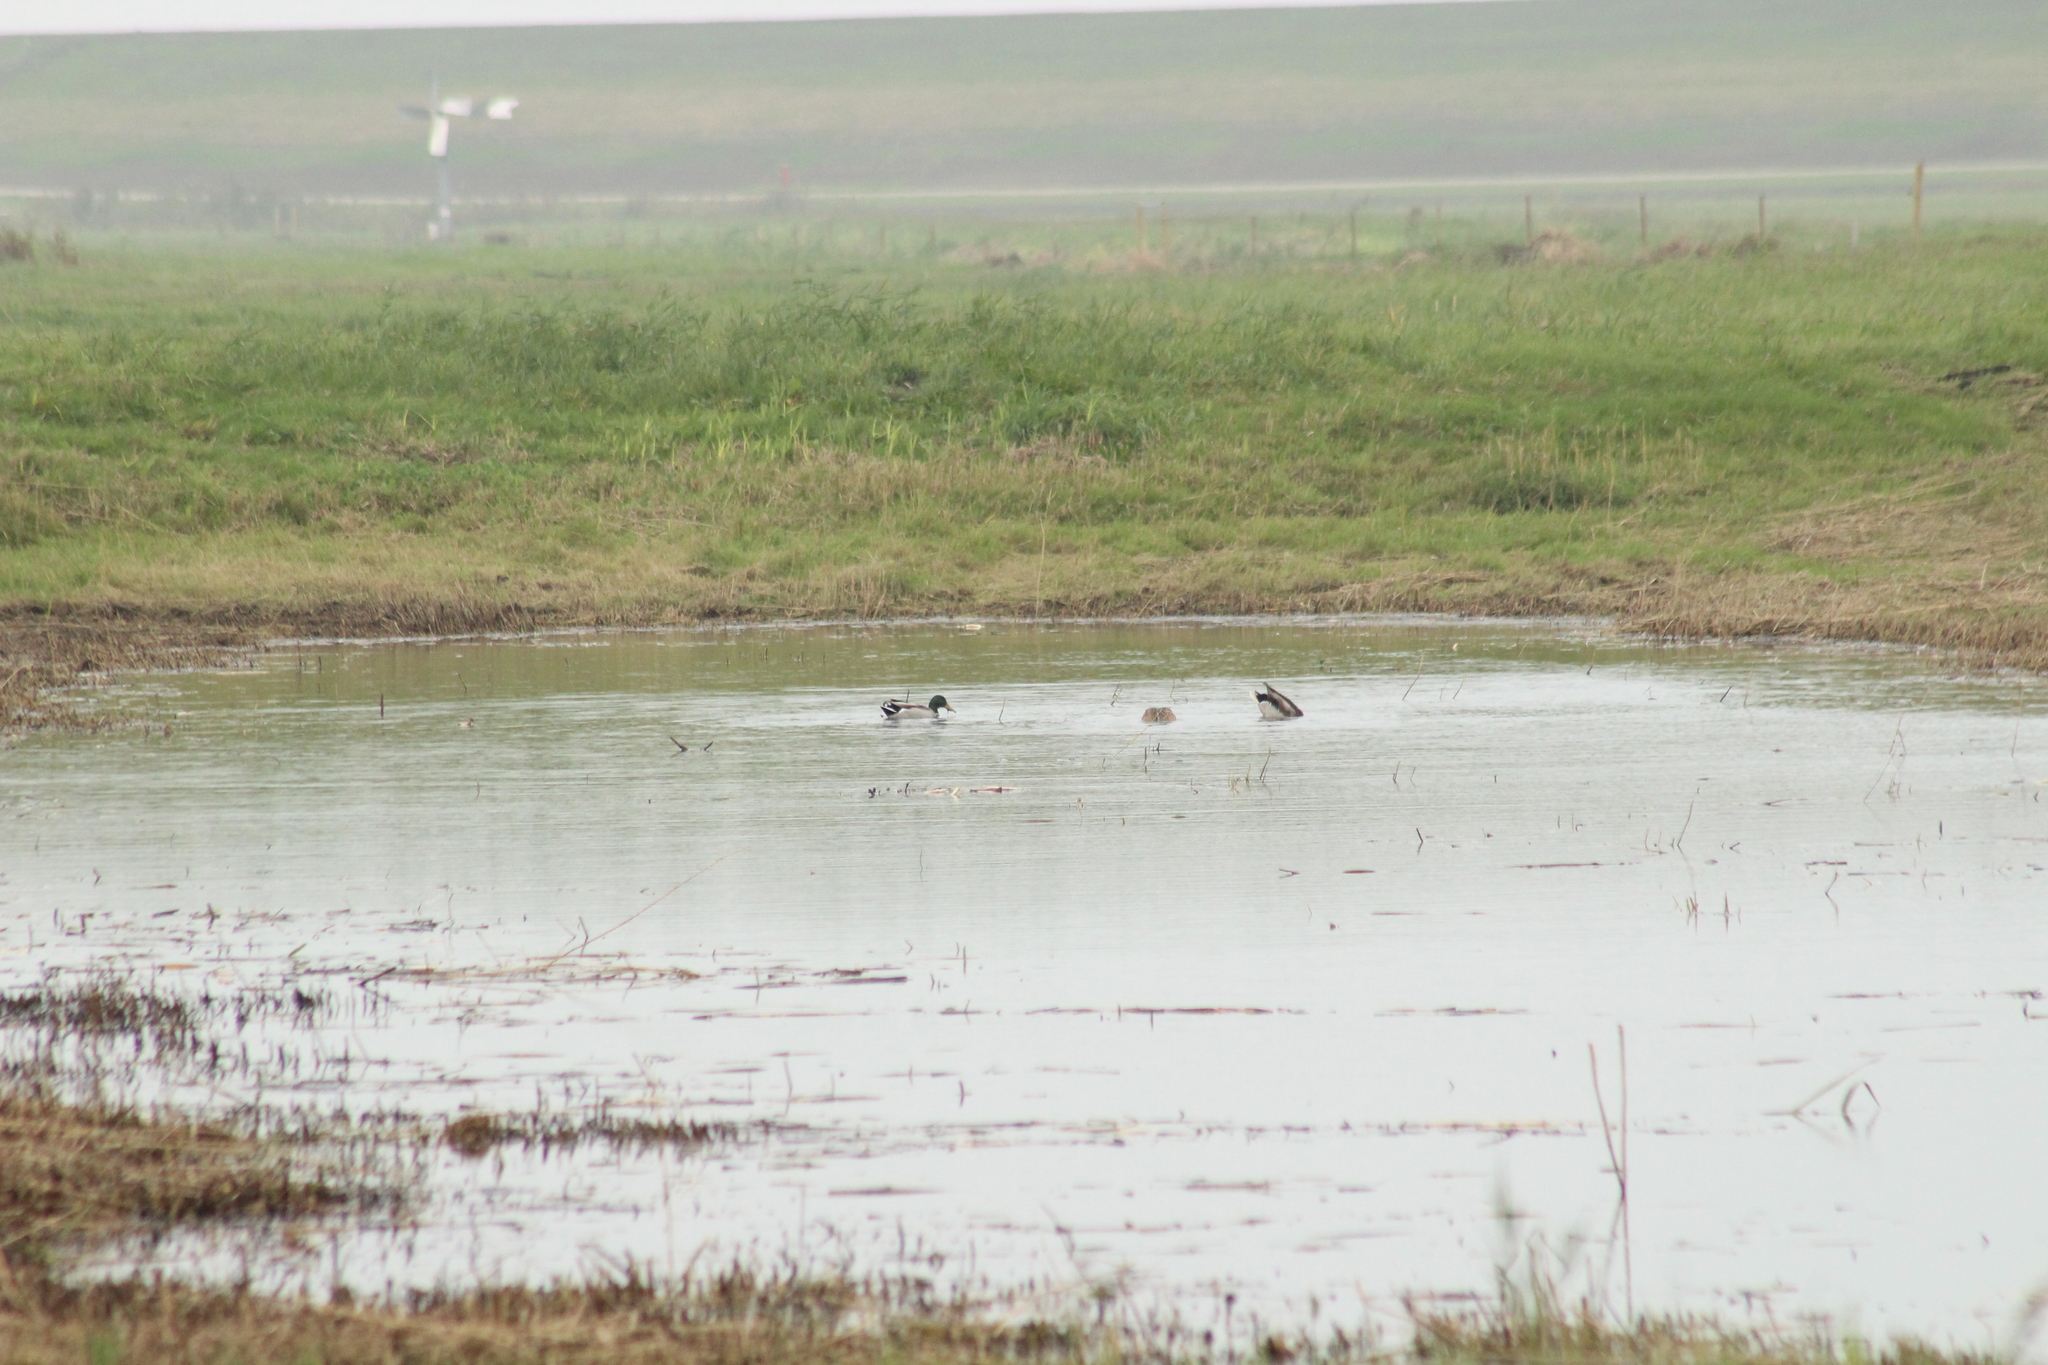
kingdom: Animalia
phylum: Chordata
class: Aves
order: Anseriformes
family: Anatidae
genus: Anas
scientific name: Anas platyrhynchos
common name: Mallard
